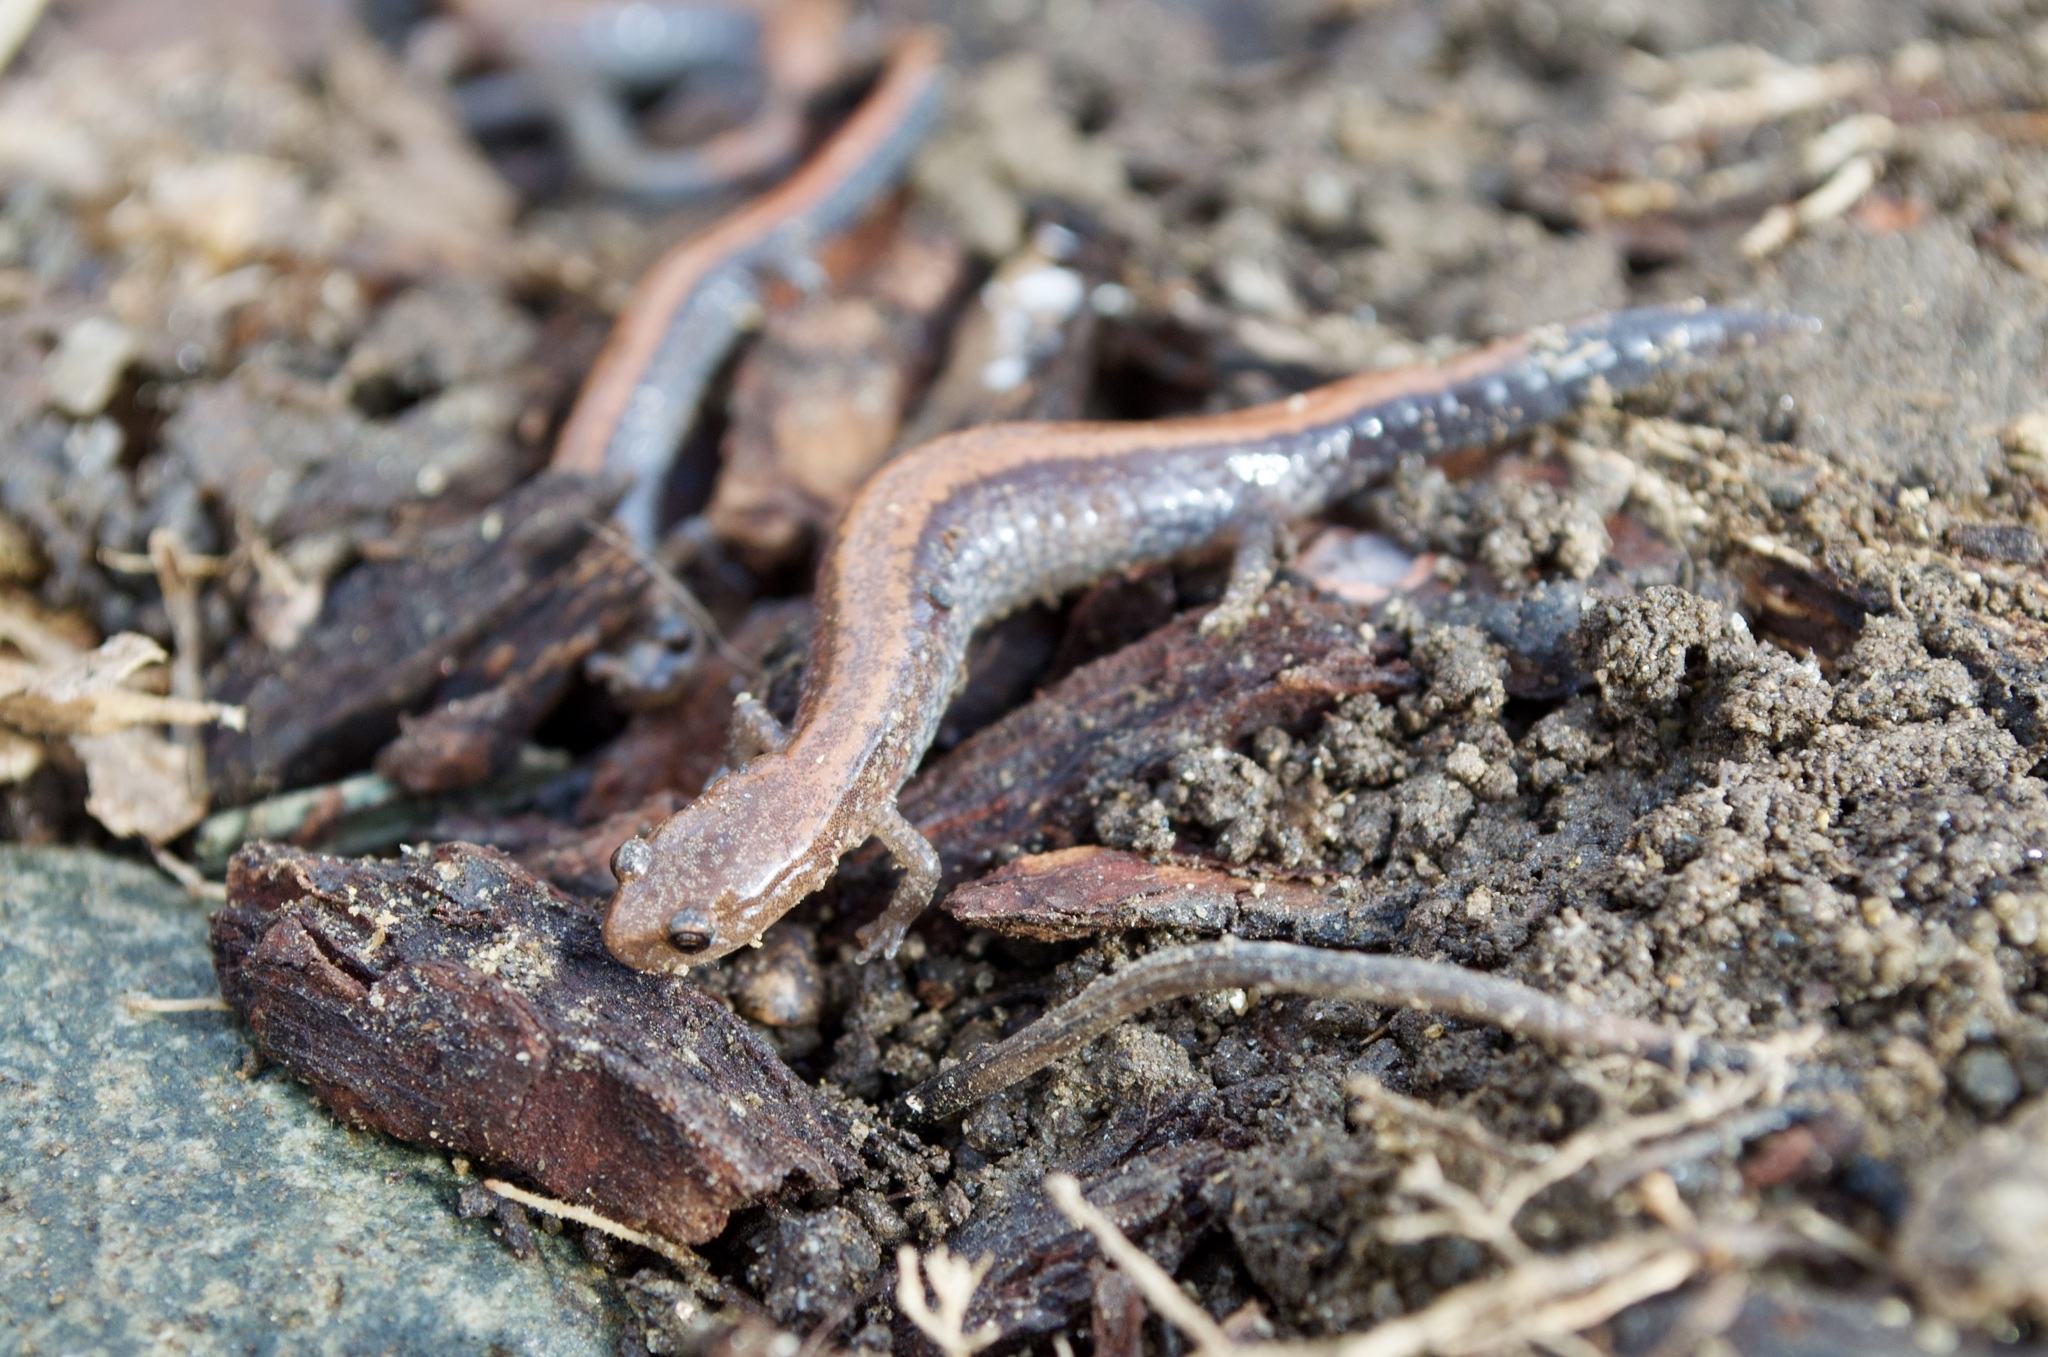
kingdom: Animalia
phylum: Chordata
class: Amphibia
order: Caudata
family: Plethodontidae
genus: Plethodon
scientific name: Plethodon cinereus
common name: Redback salamander
